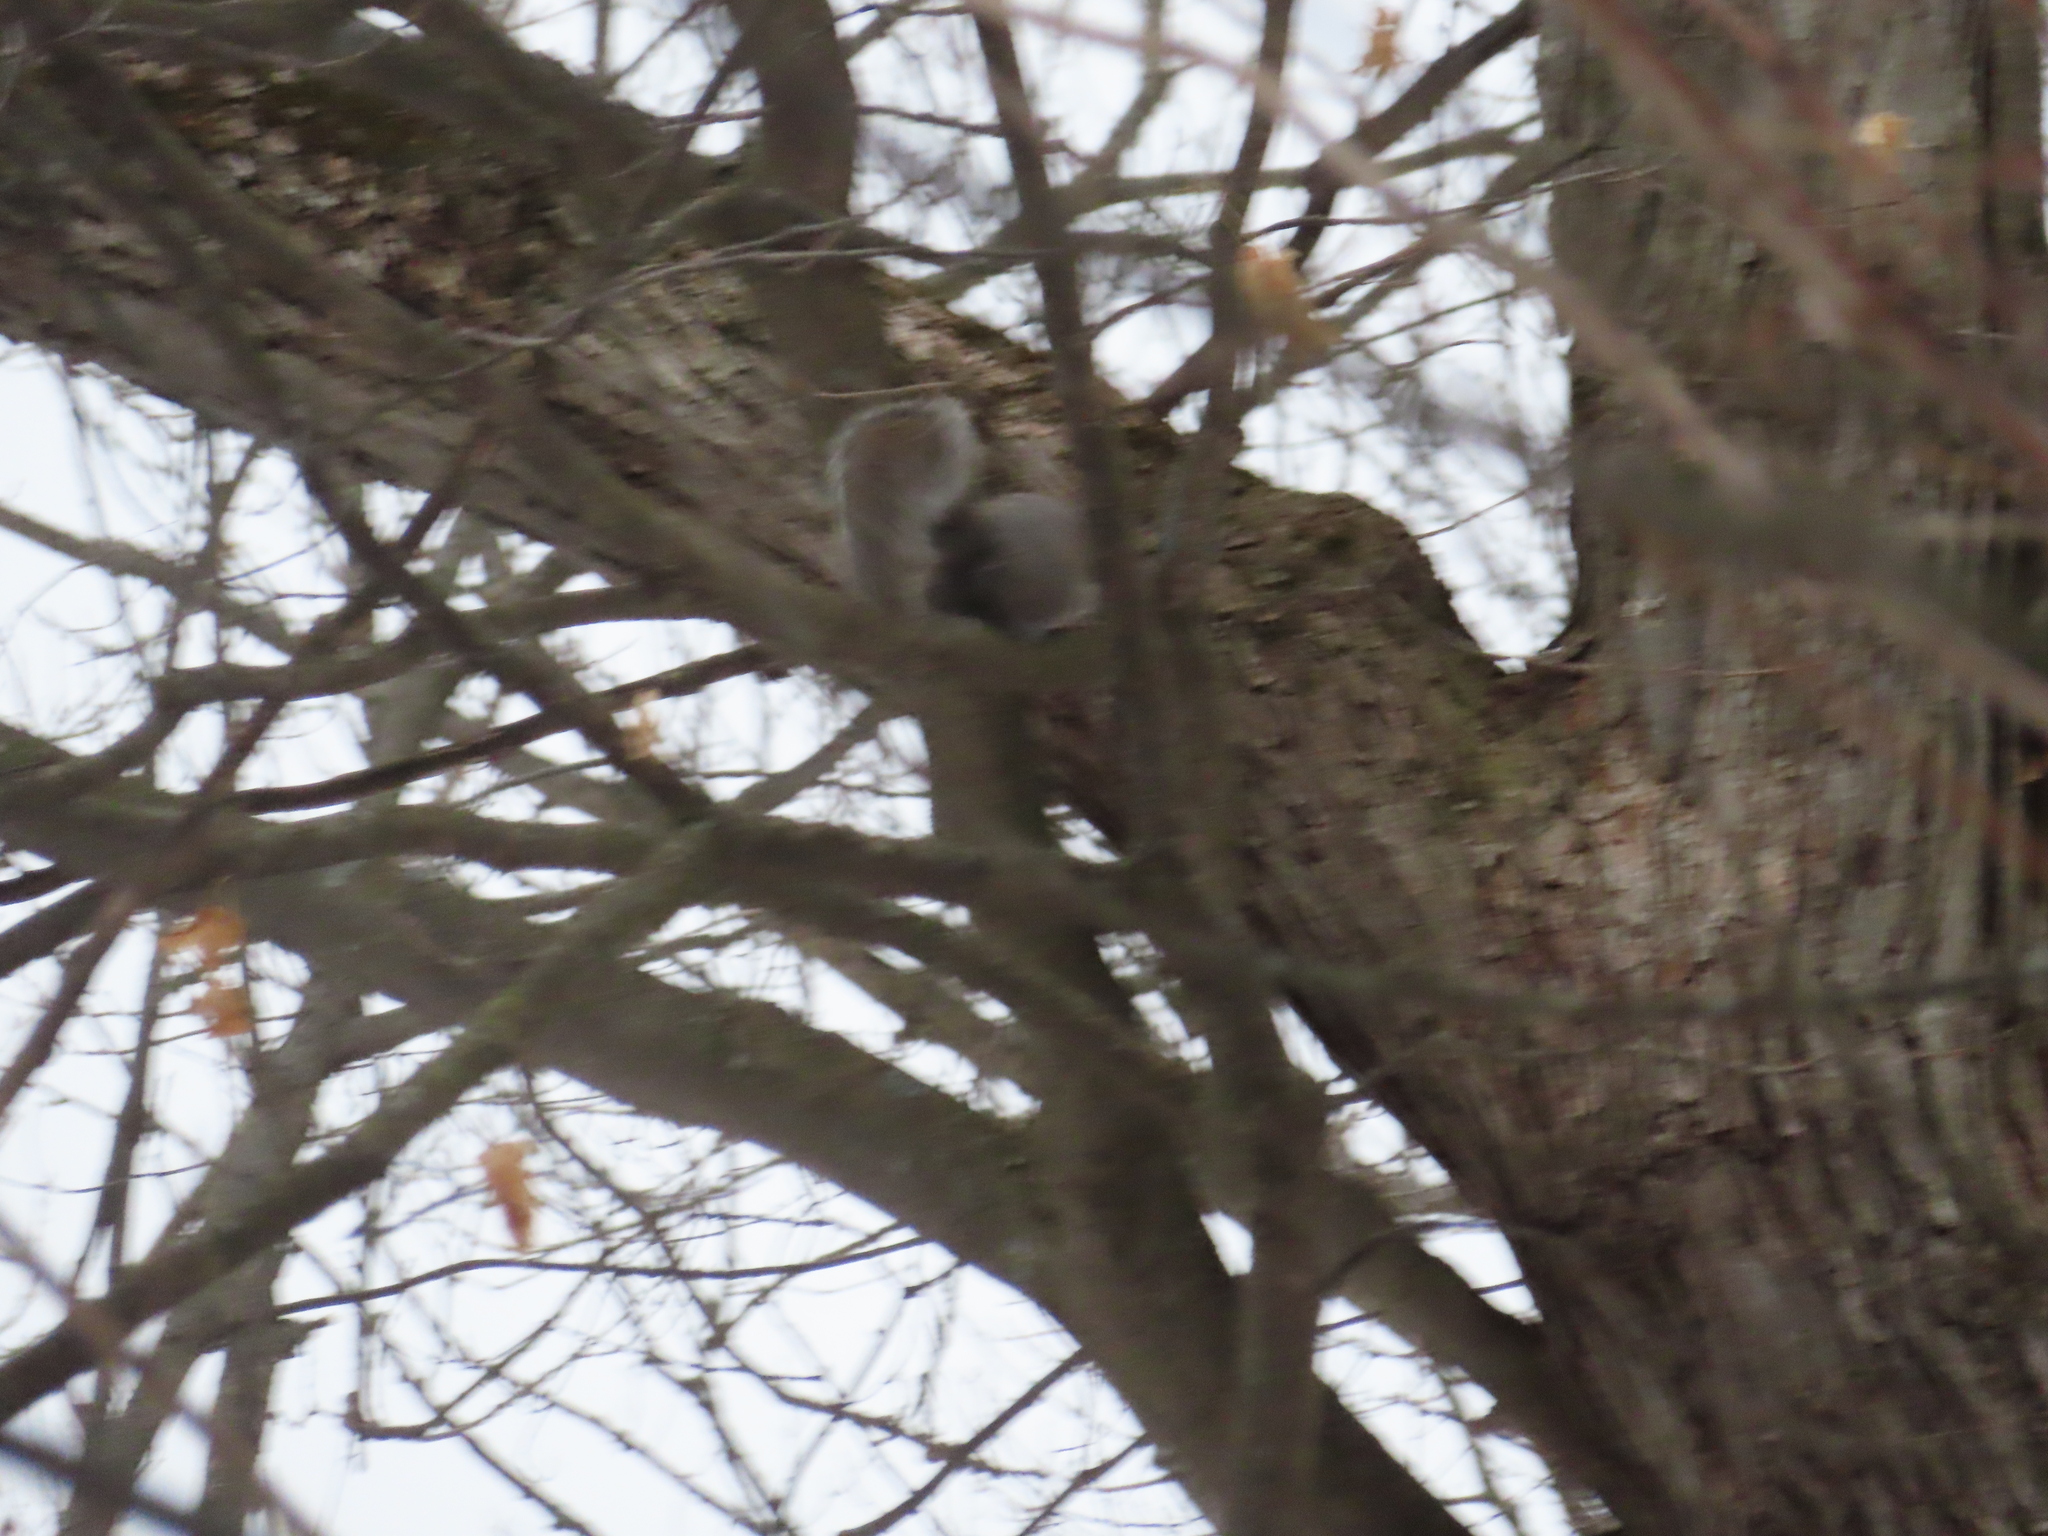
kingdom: Animalia
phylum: Chordata
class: Mammalia
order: Rodentia
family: Sciuridae
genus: Sciurus
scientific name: Sciurus carolinensis
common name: Eastern gray squirrel
